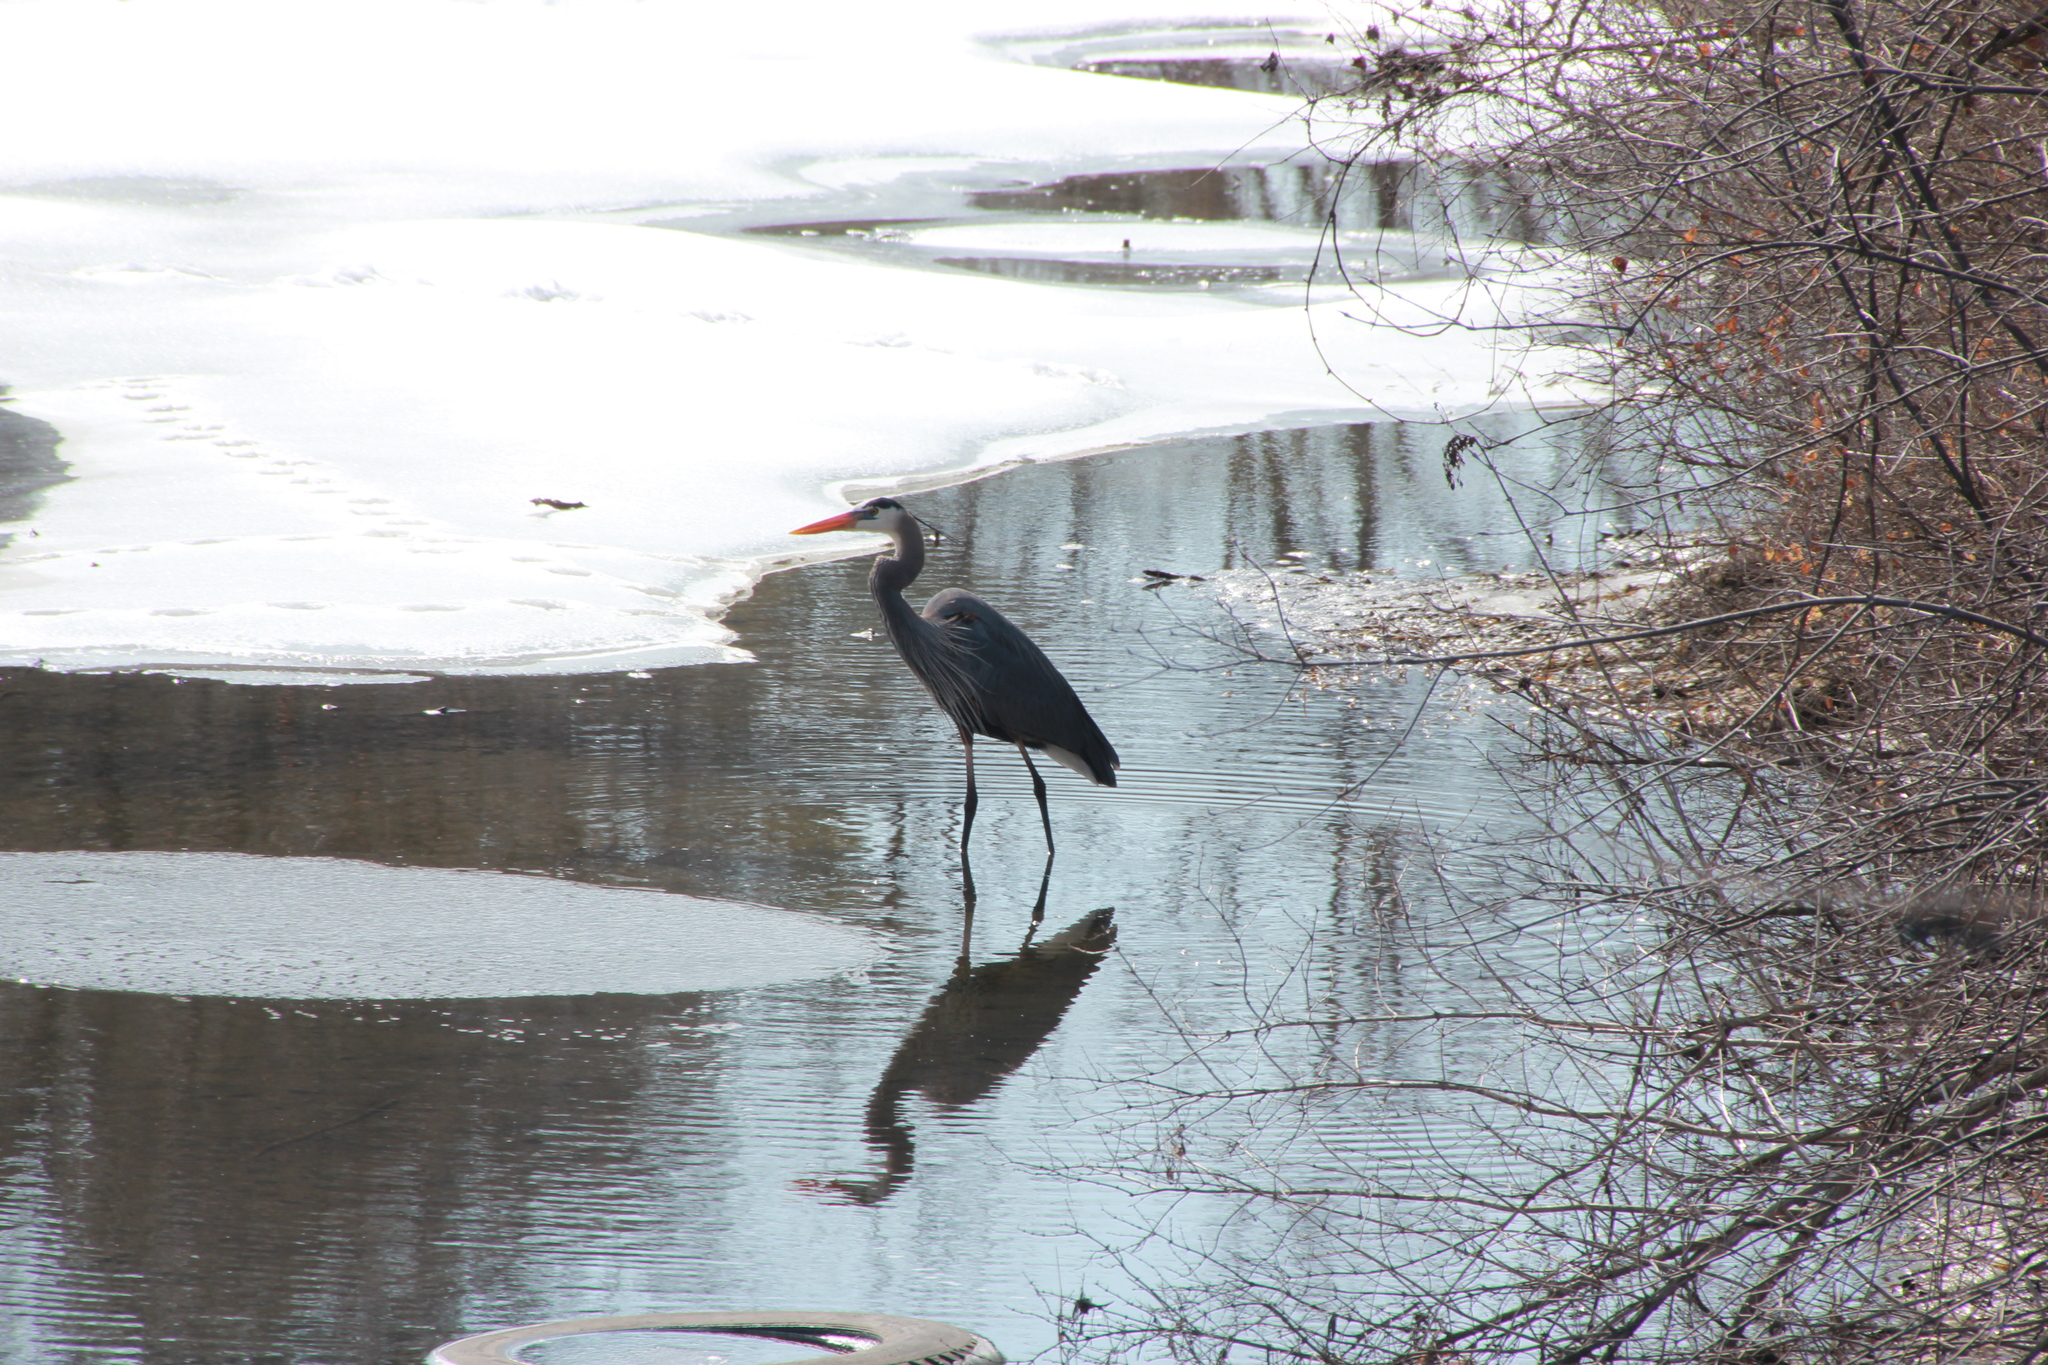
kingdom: Animalia
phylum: Chordata
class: Aves
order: Pelecaniformes
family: Ardeidae
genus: Ardea
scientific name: Ardea herodias
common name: Great blue heron
